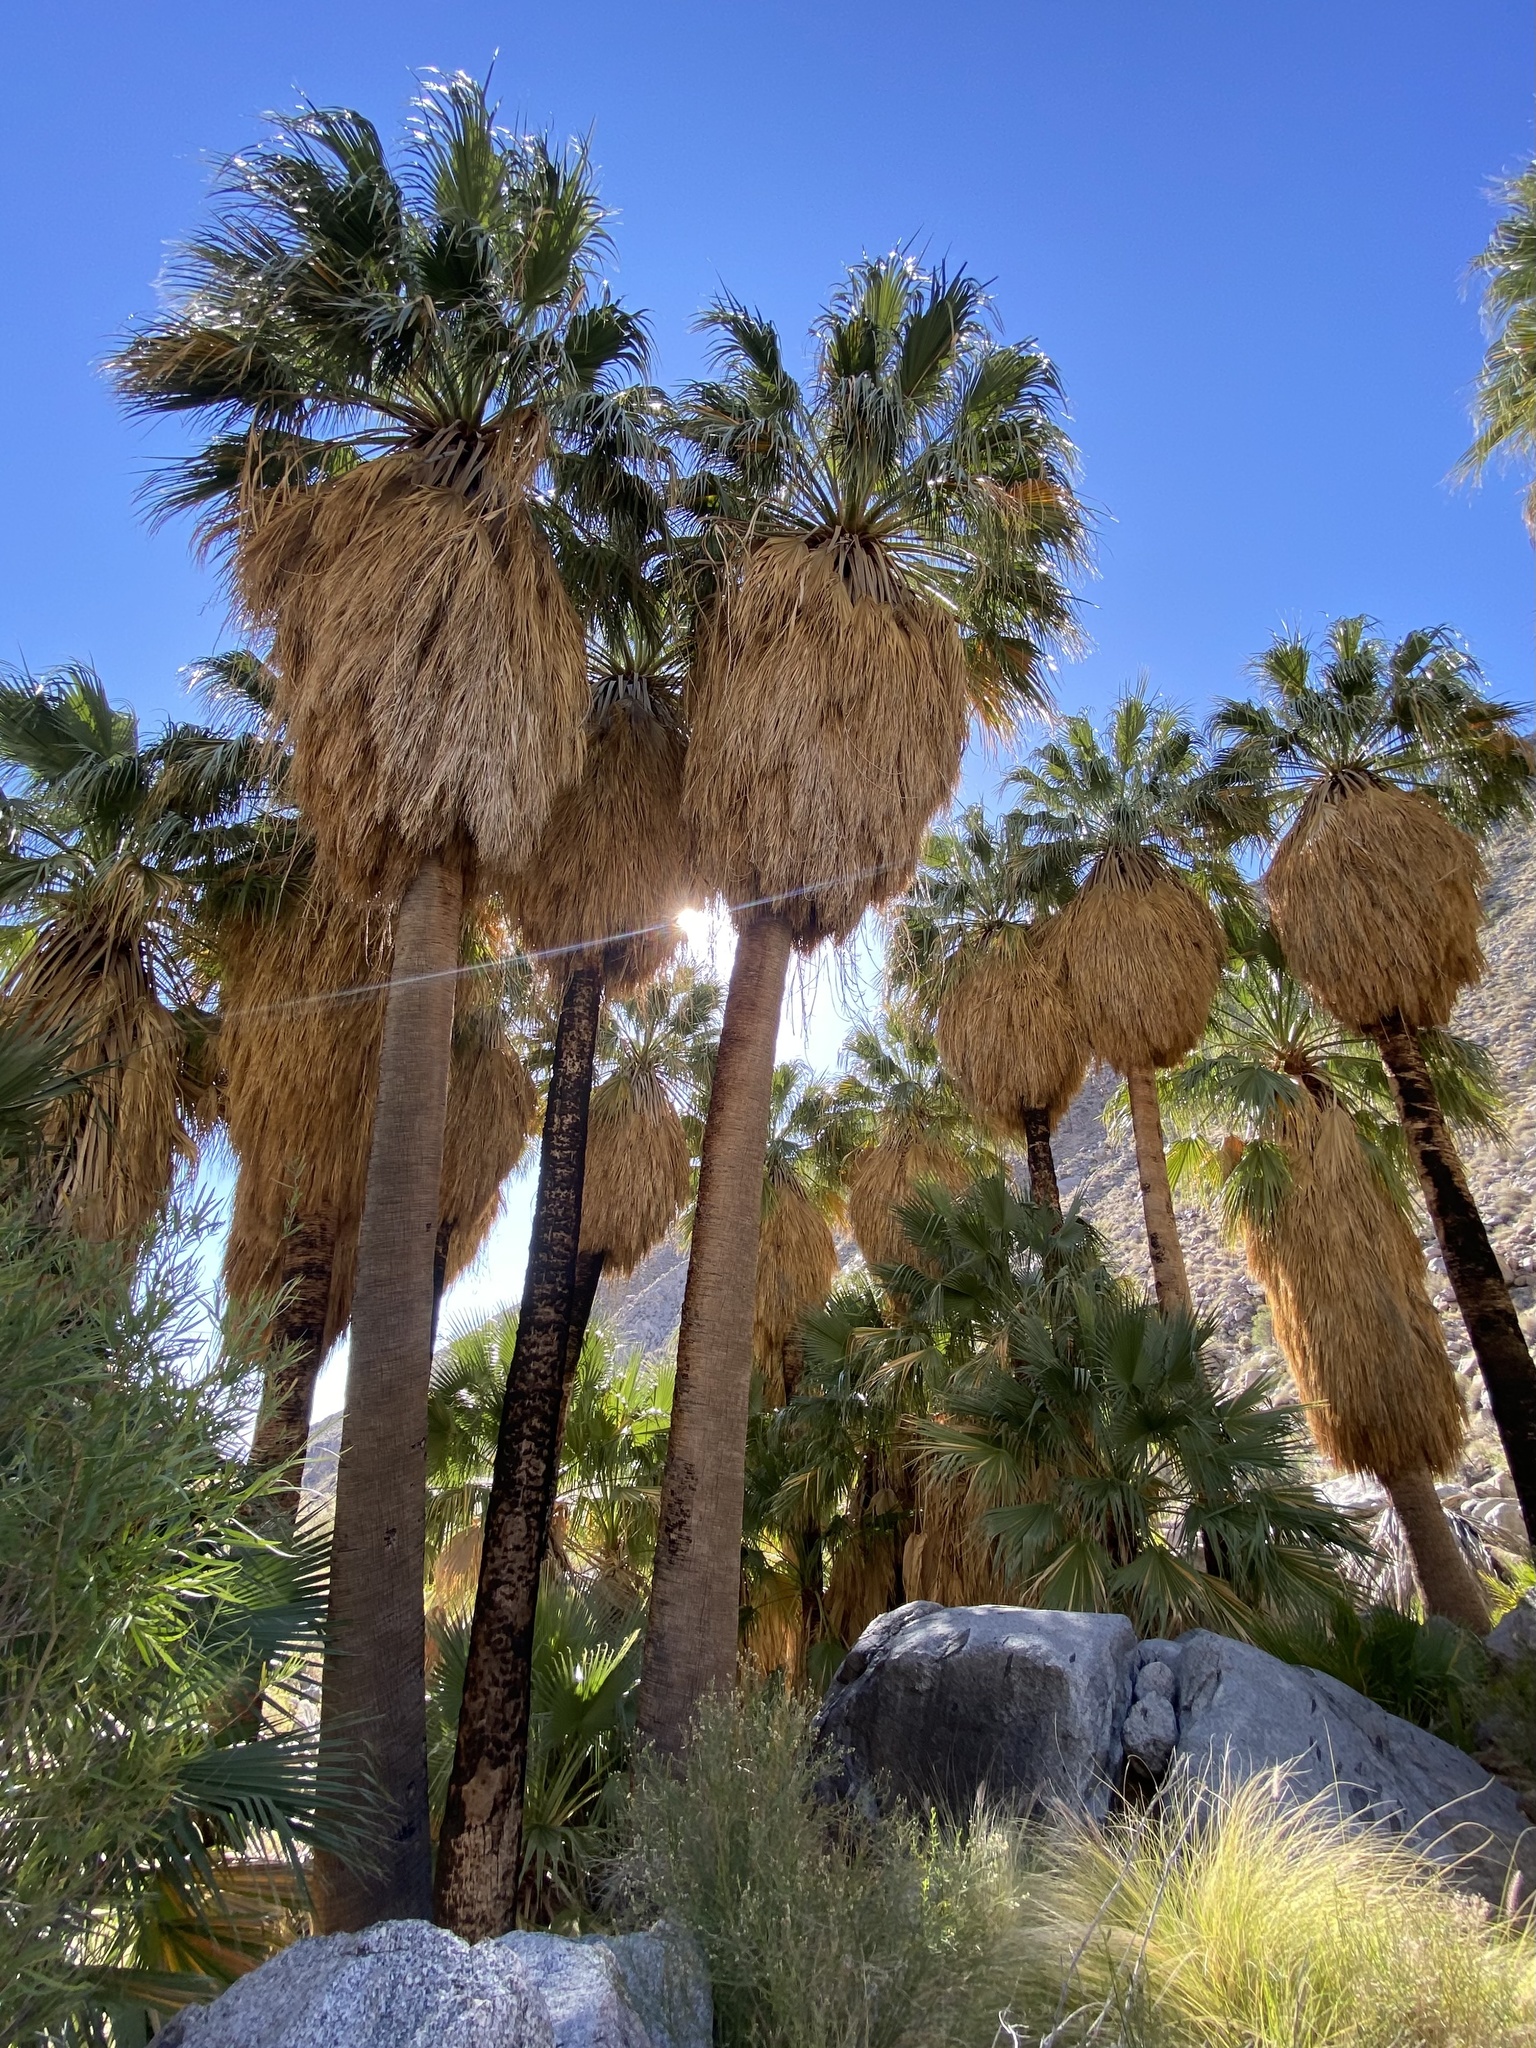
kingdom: Plantae
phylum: Tracheophyta
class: Liliopsida
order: Arecales
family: Arecaceae
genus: Washingtonia
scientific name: Washingtonia filifera
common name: California fan palm
